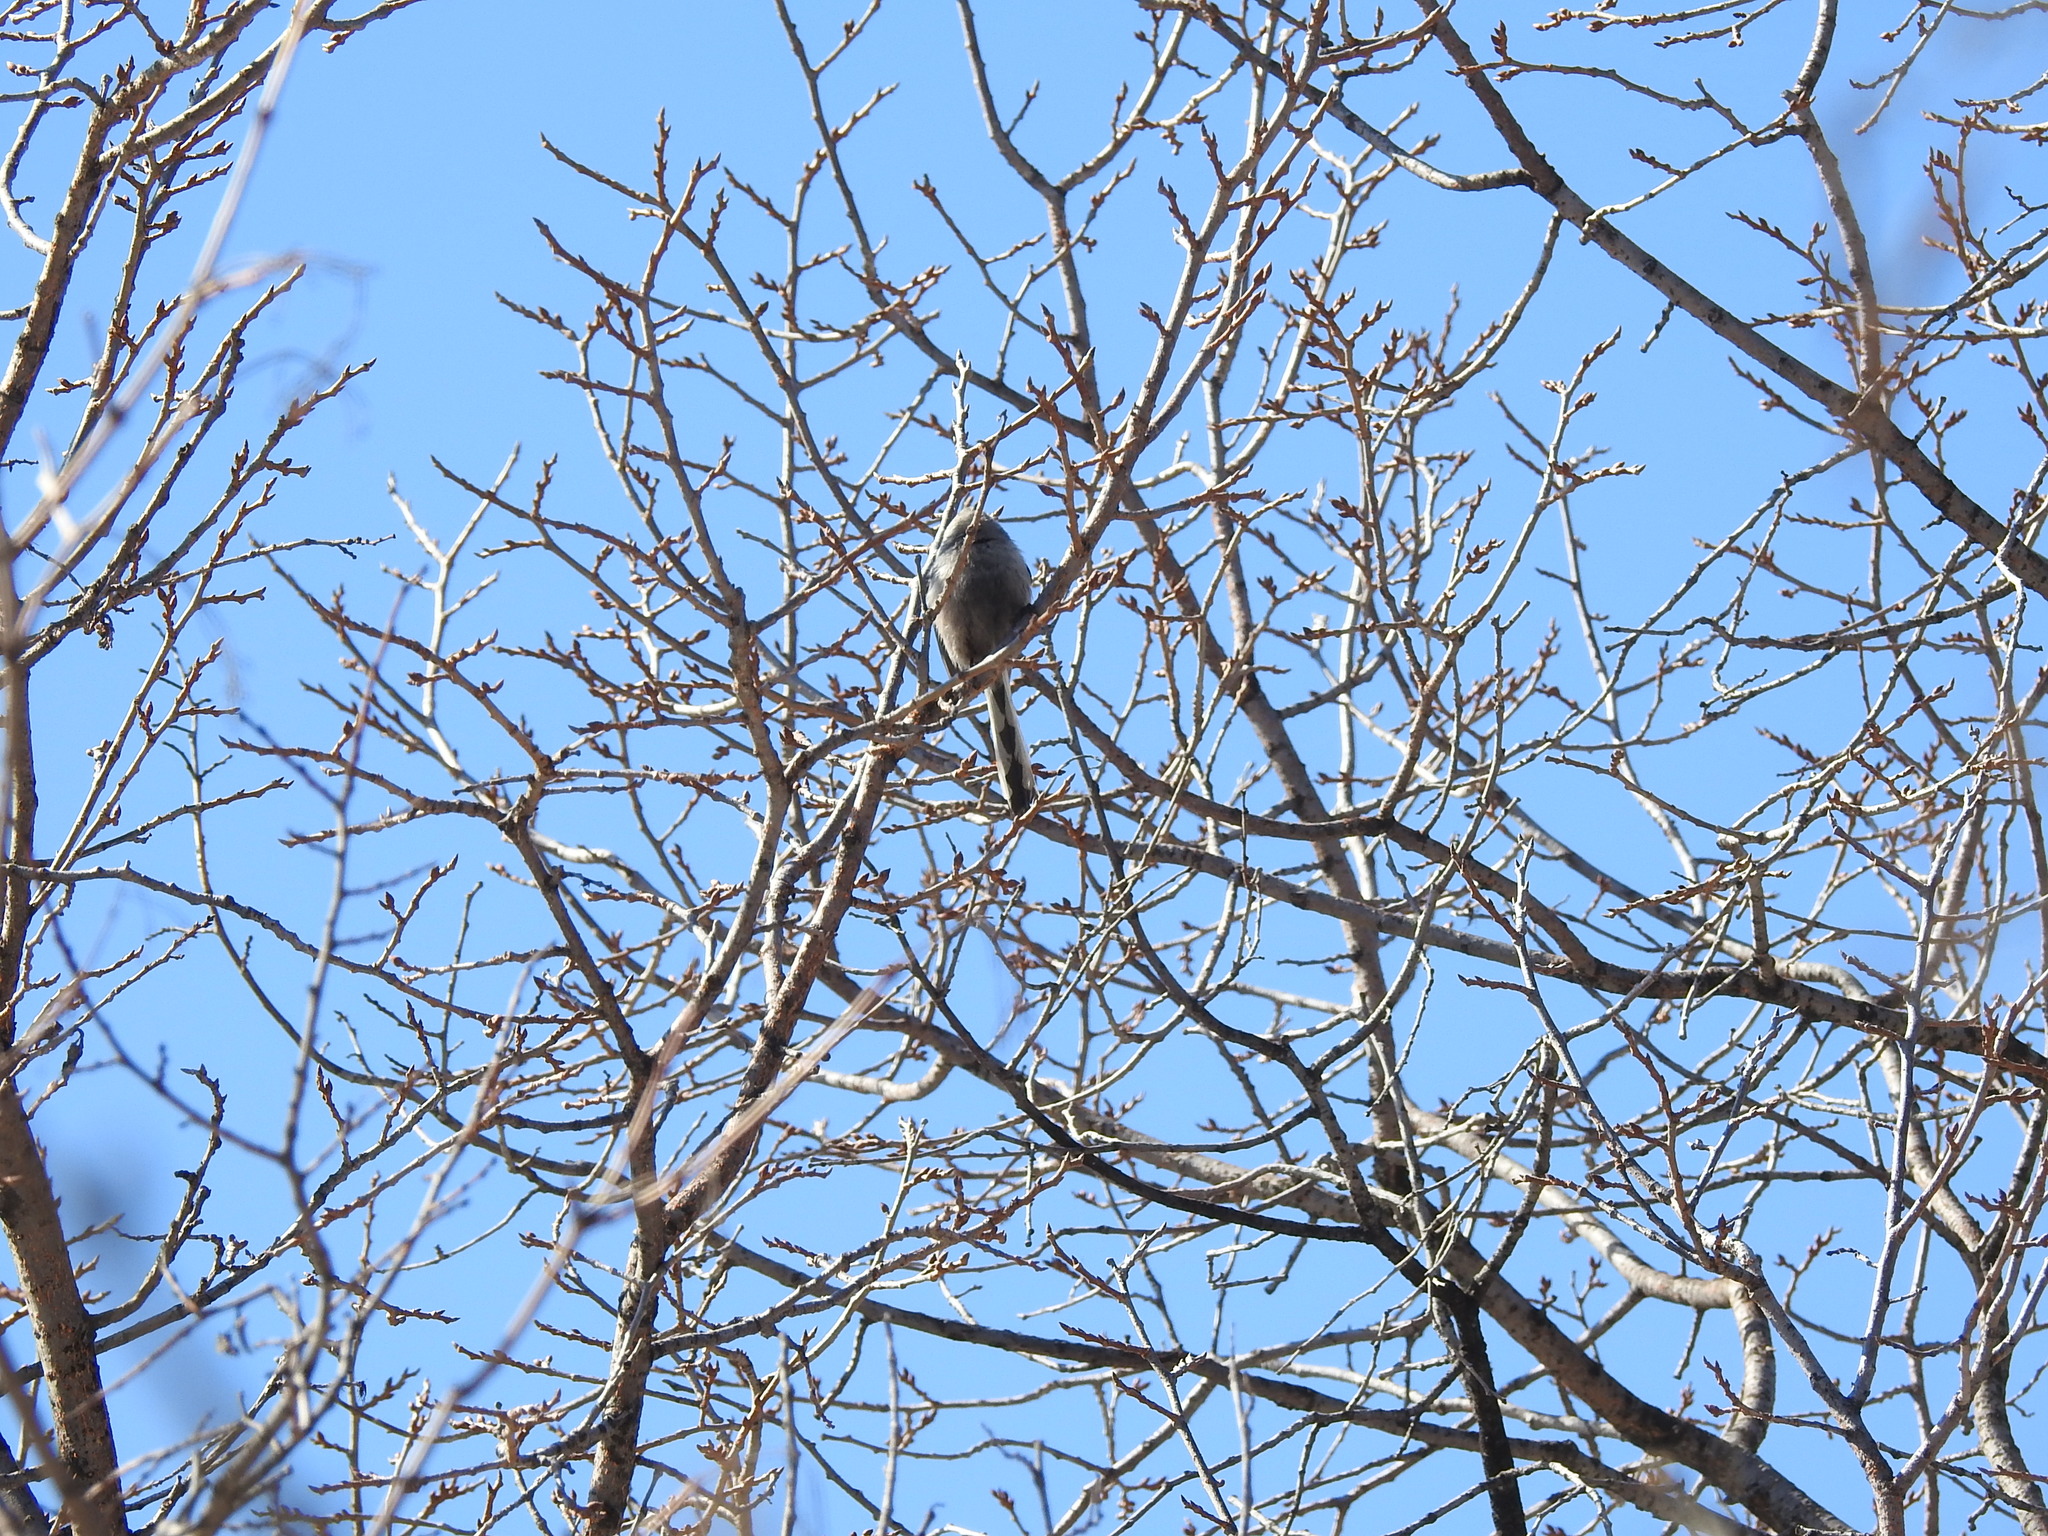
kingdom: Animalia
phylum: Chordata
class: Aves
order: Passeriformes
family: Aegithalidae
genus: Aegithalos
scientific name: Aegithalos caudatus
